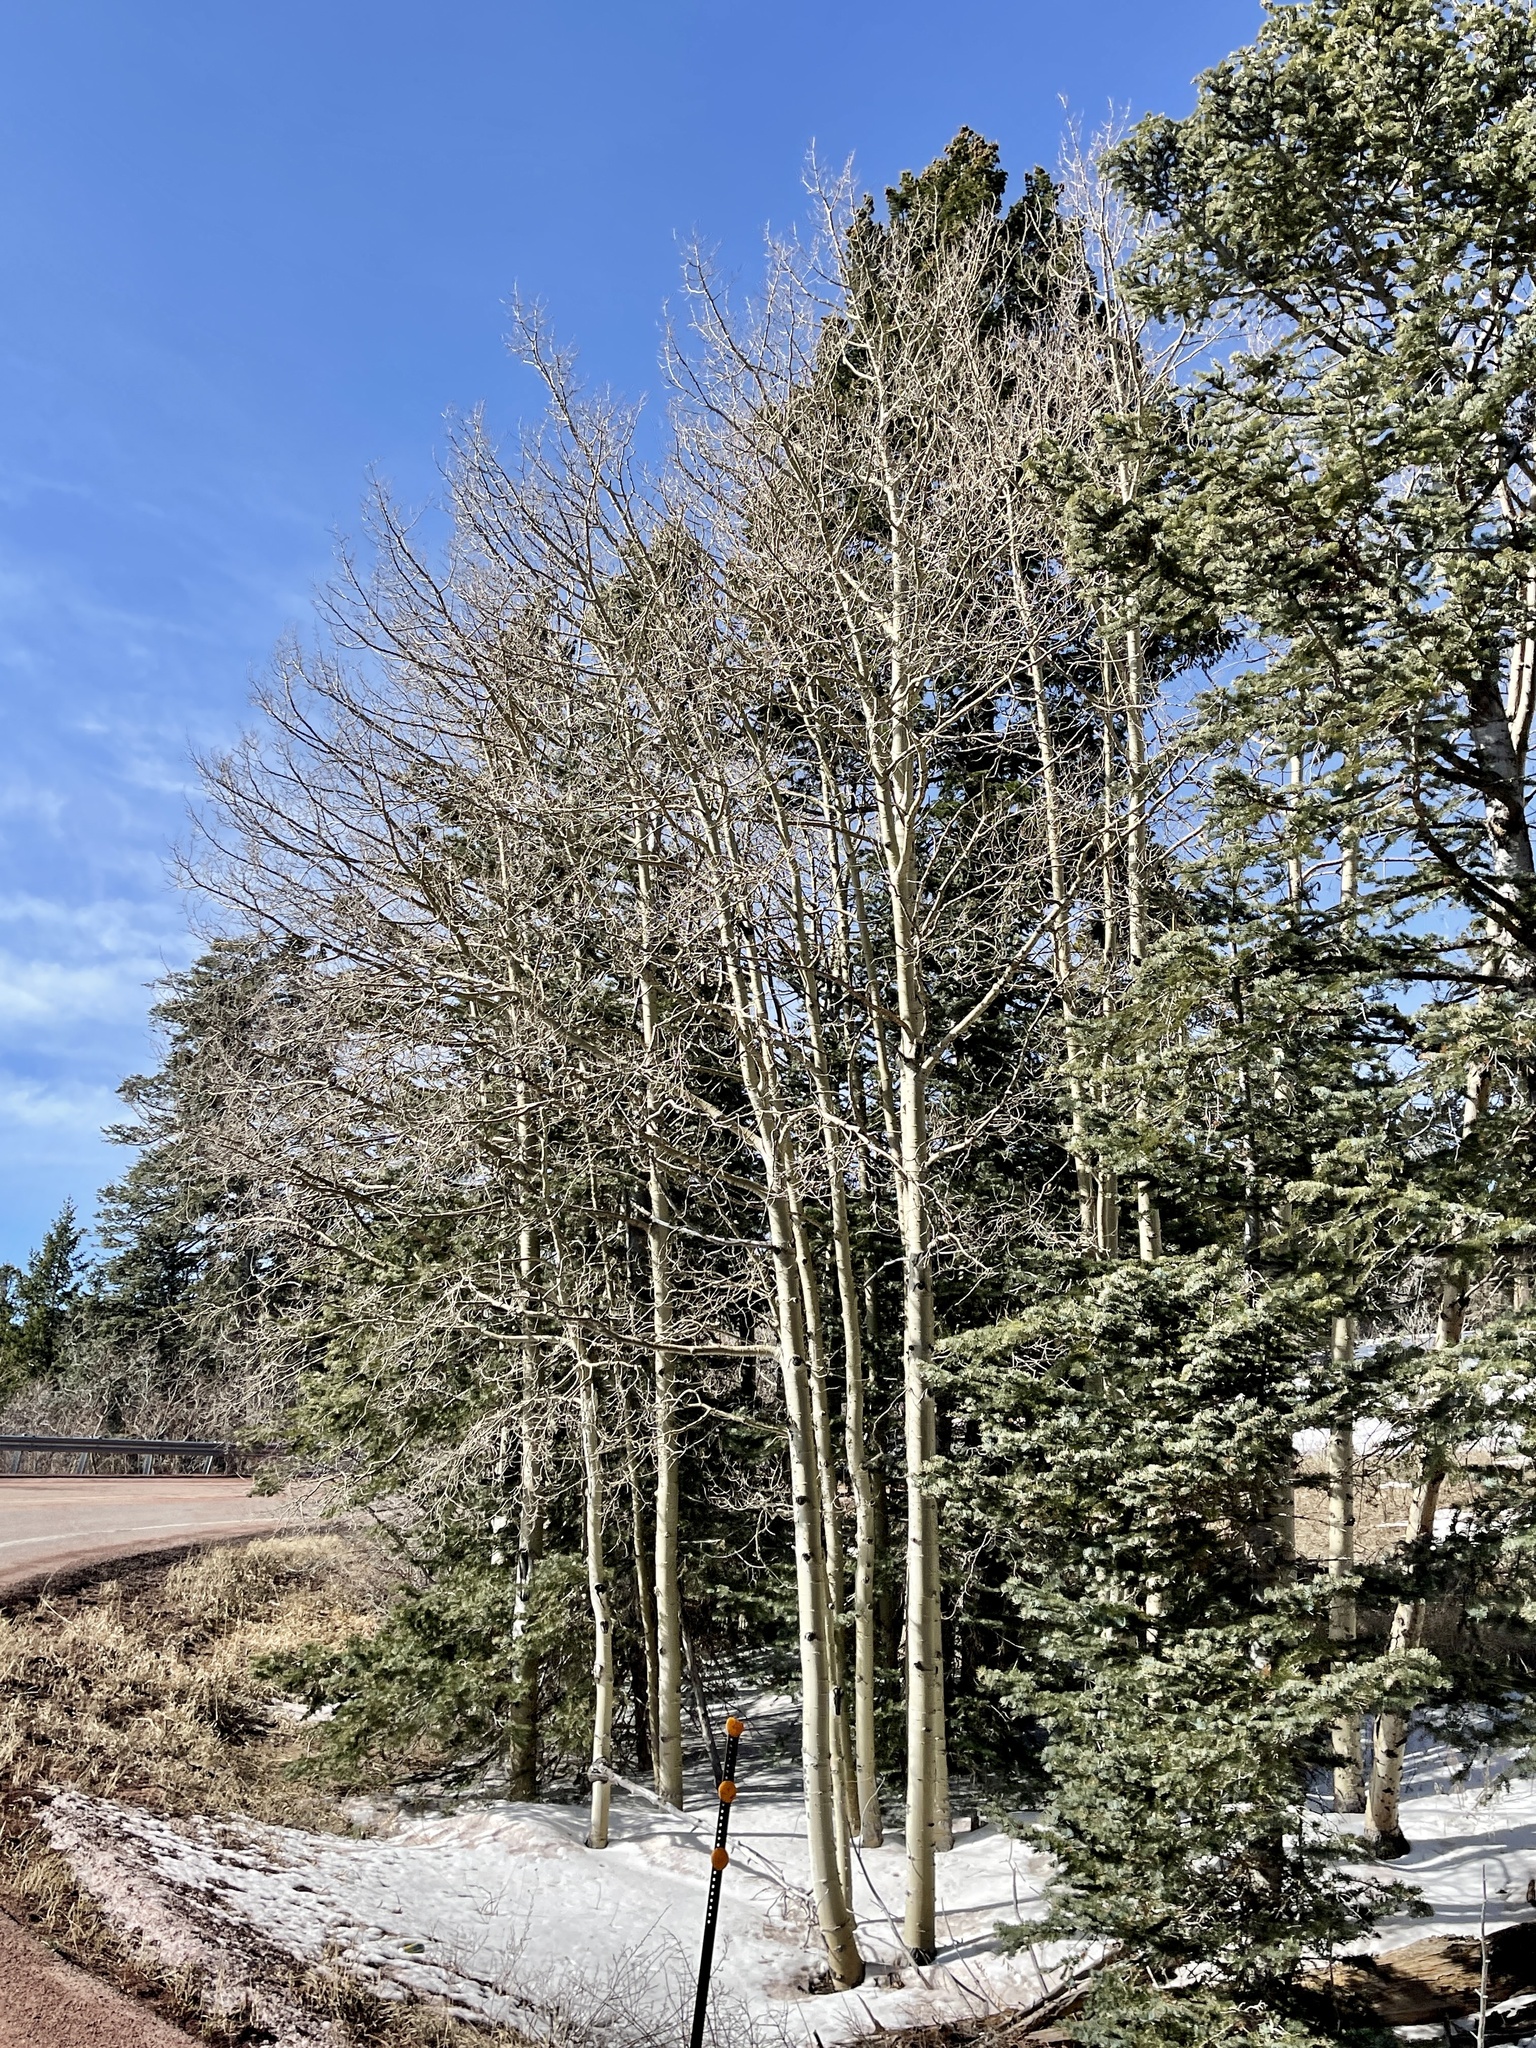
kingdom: Plantae
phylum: Tracheophyta
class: Magnoliopsida
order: Malpighiales
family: Salicaceae
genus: Populus
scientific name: Populus tremuloides
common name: Quaking aspen
